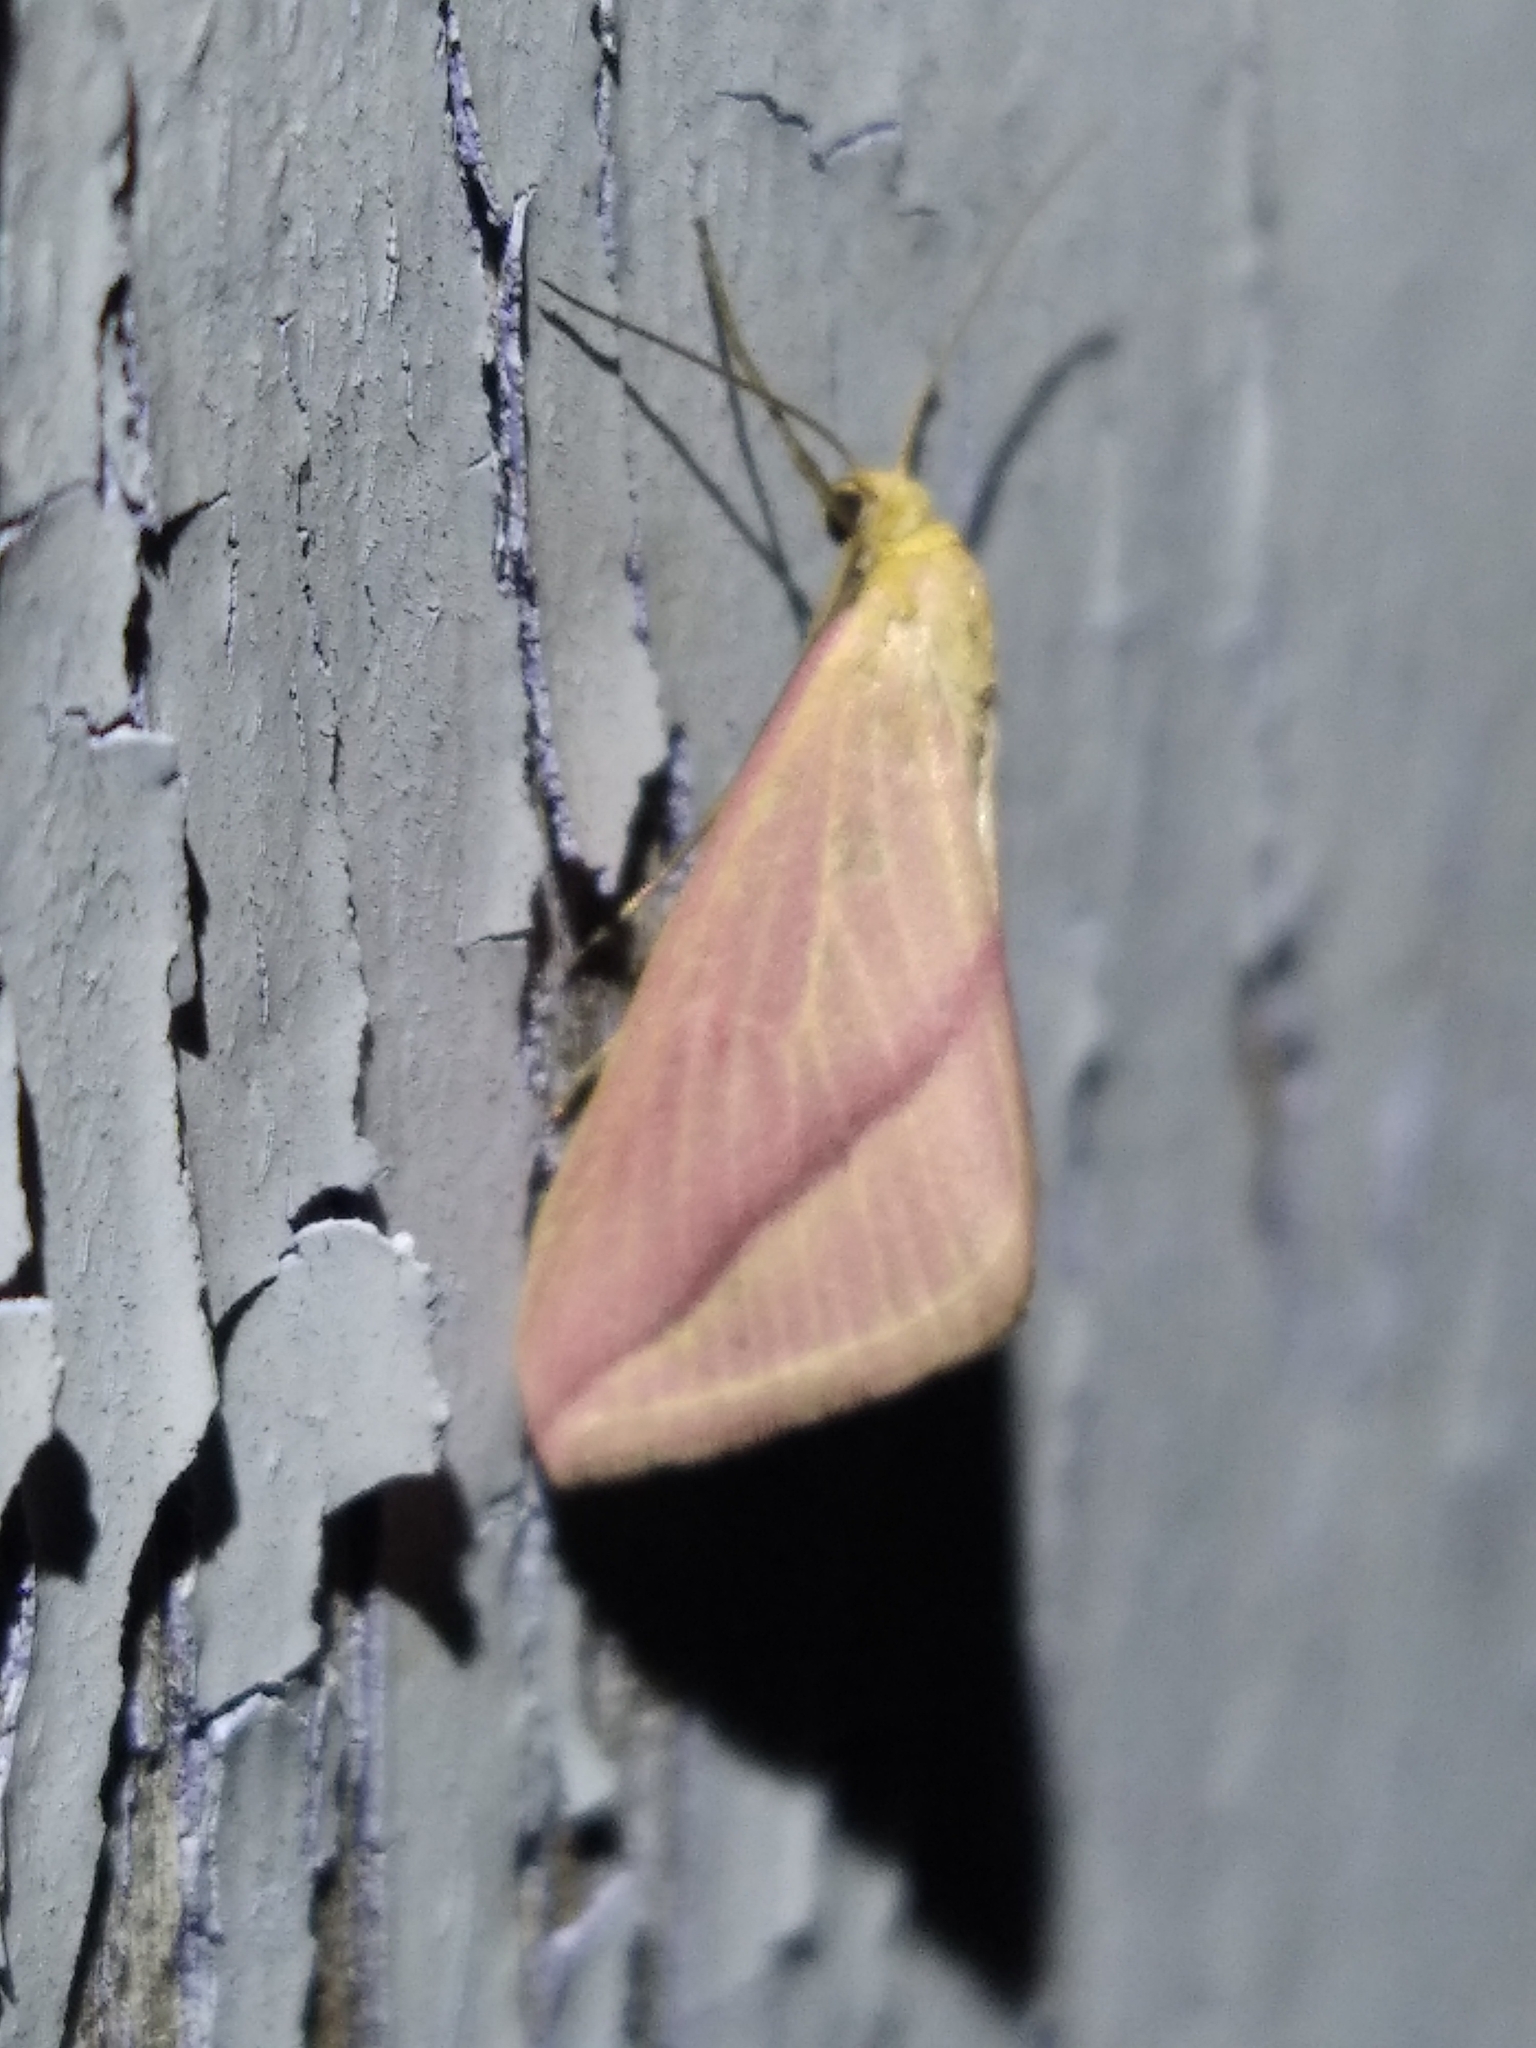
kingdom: Animalia
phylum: Arthropoda
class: Insecta
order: Lepidoptera
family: Geometridae
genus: Rhodometra
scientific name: Rhodometra sacraria
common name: Vestal
